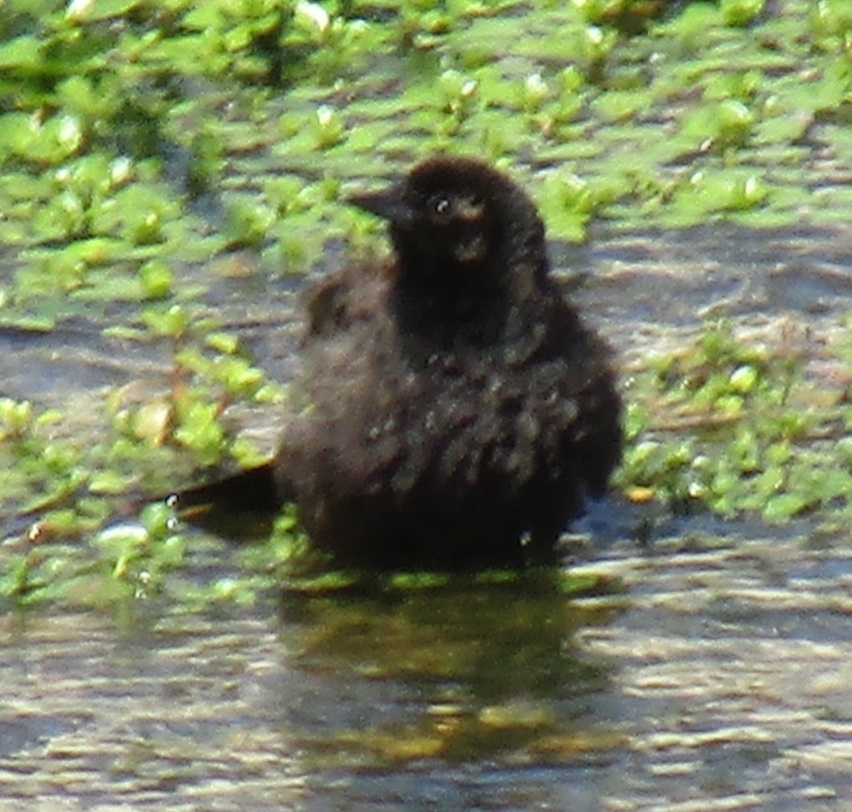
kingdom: Animalia
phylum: Chordata
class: Aves
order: Passeriformes
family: Icteridae
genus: Agelaius
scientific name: Agelaius phoeniceus
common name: Red-winged blackbird
